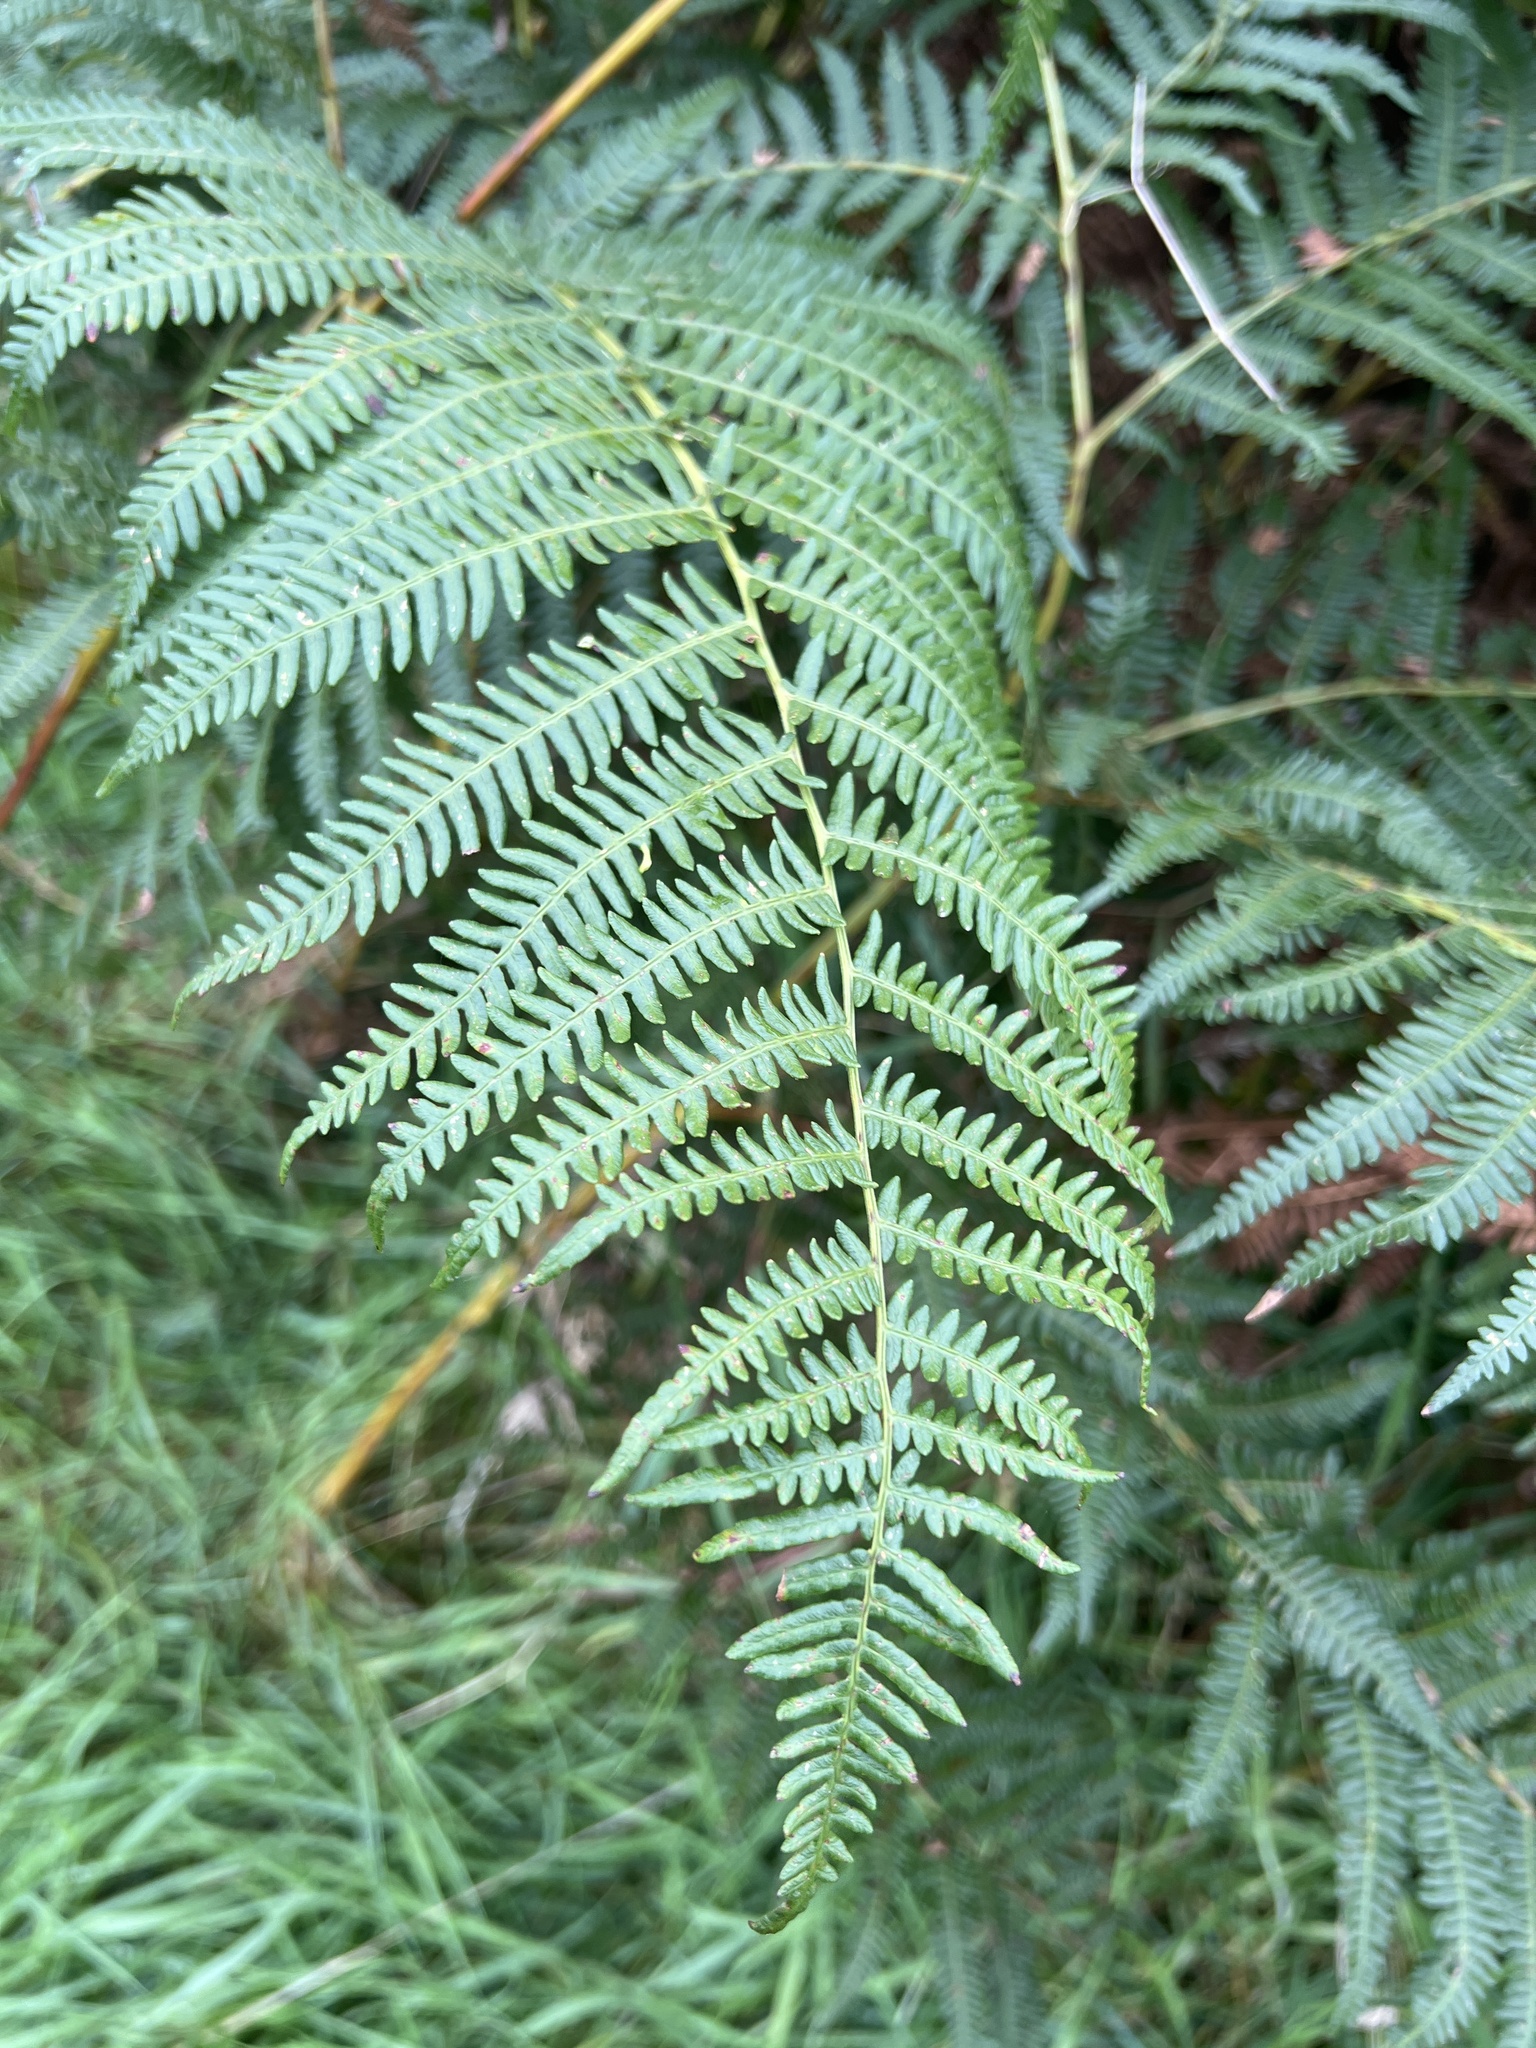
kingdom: Plantae
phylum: Tracheophyta
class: Polypodiopsida
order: Polypodiales
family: Dennstaedtiaceae
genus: Pteridium
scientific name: Pteridium aquilinum
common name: Bracken
